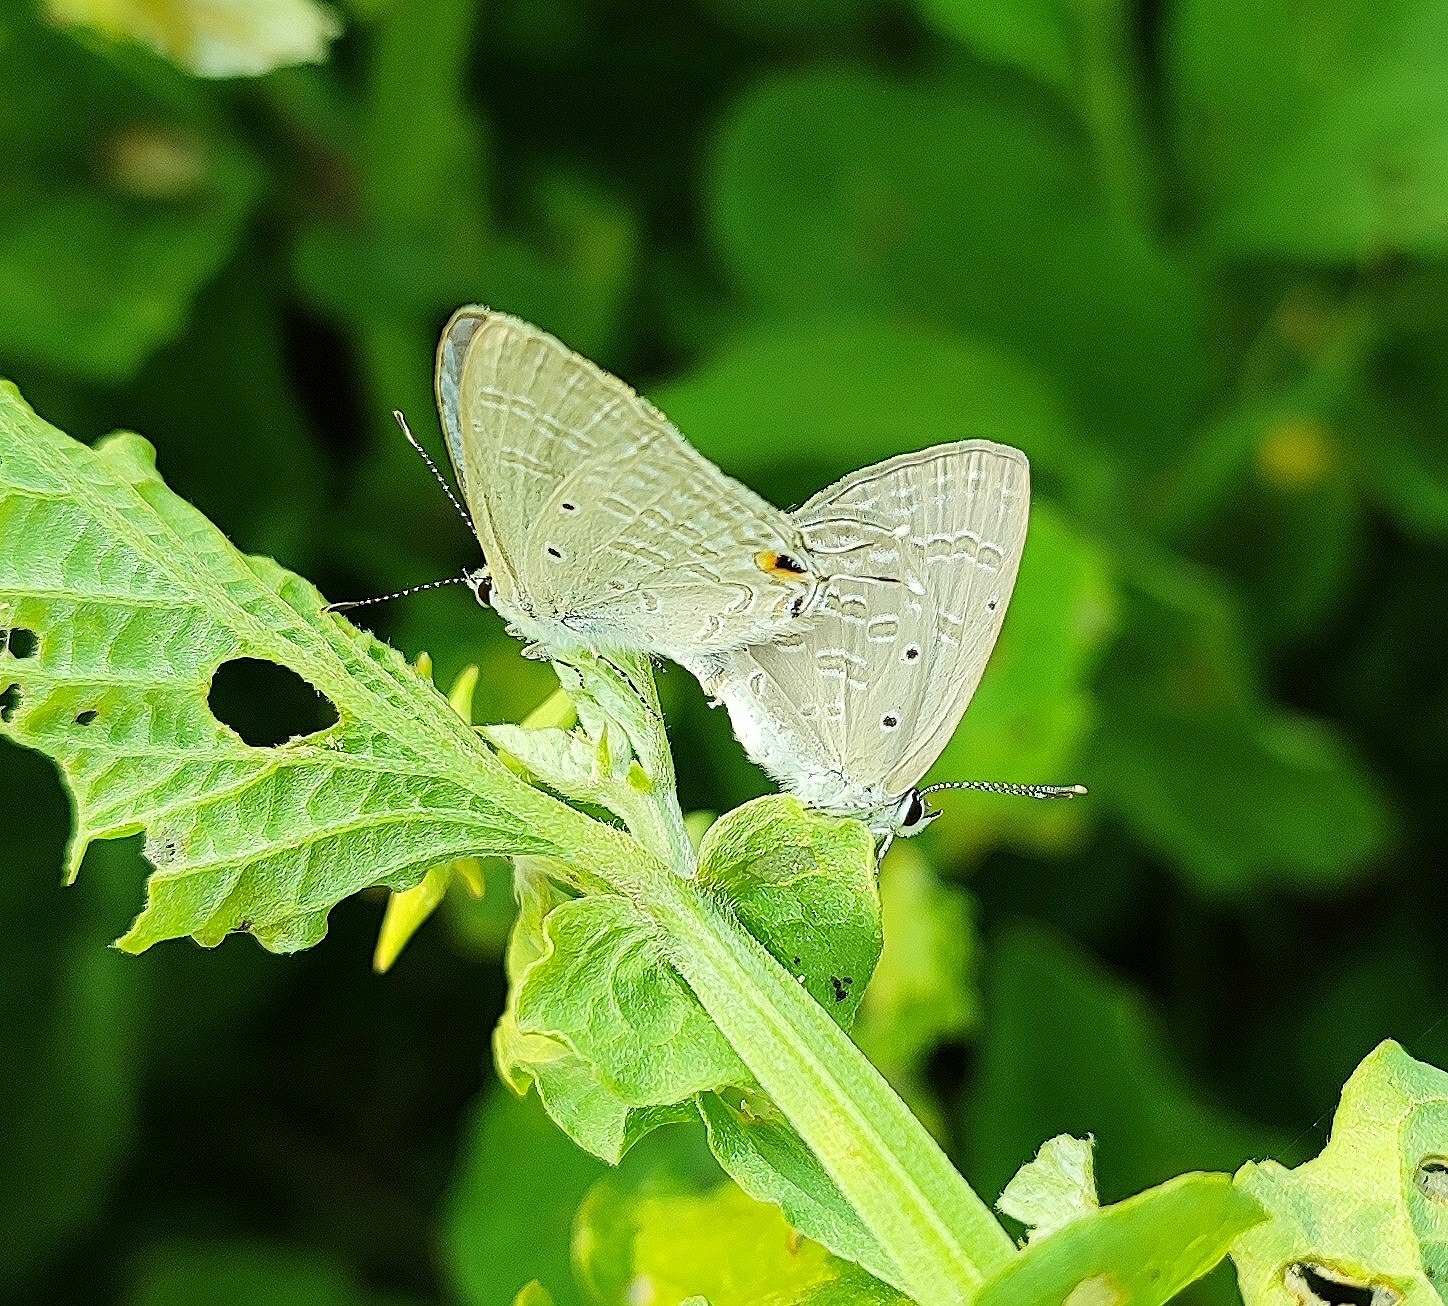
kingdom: Animalia
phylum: Arthropoda
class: Insecta
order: Lepidoptera
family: Lycaenidae
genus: Catochrysops
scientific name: Catochrysops strabo
